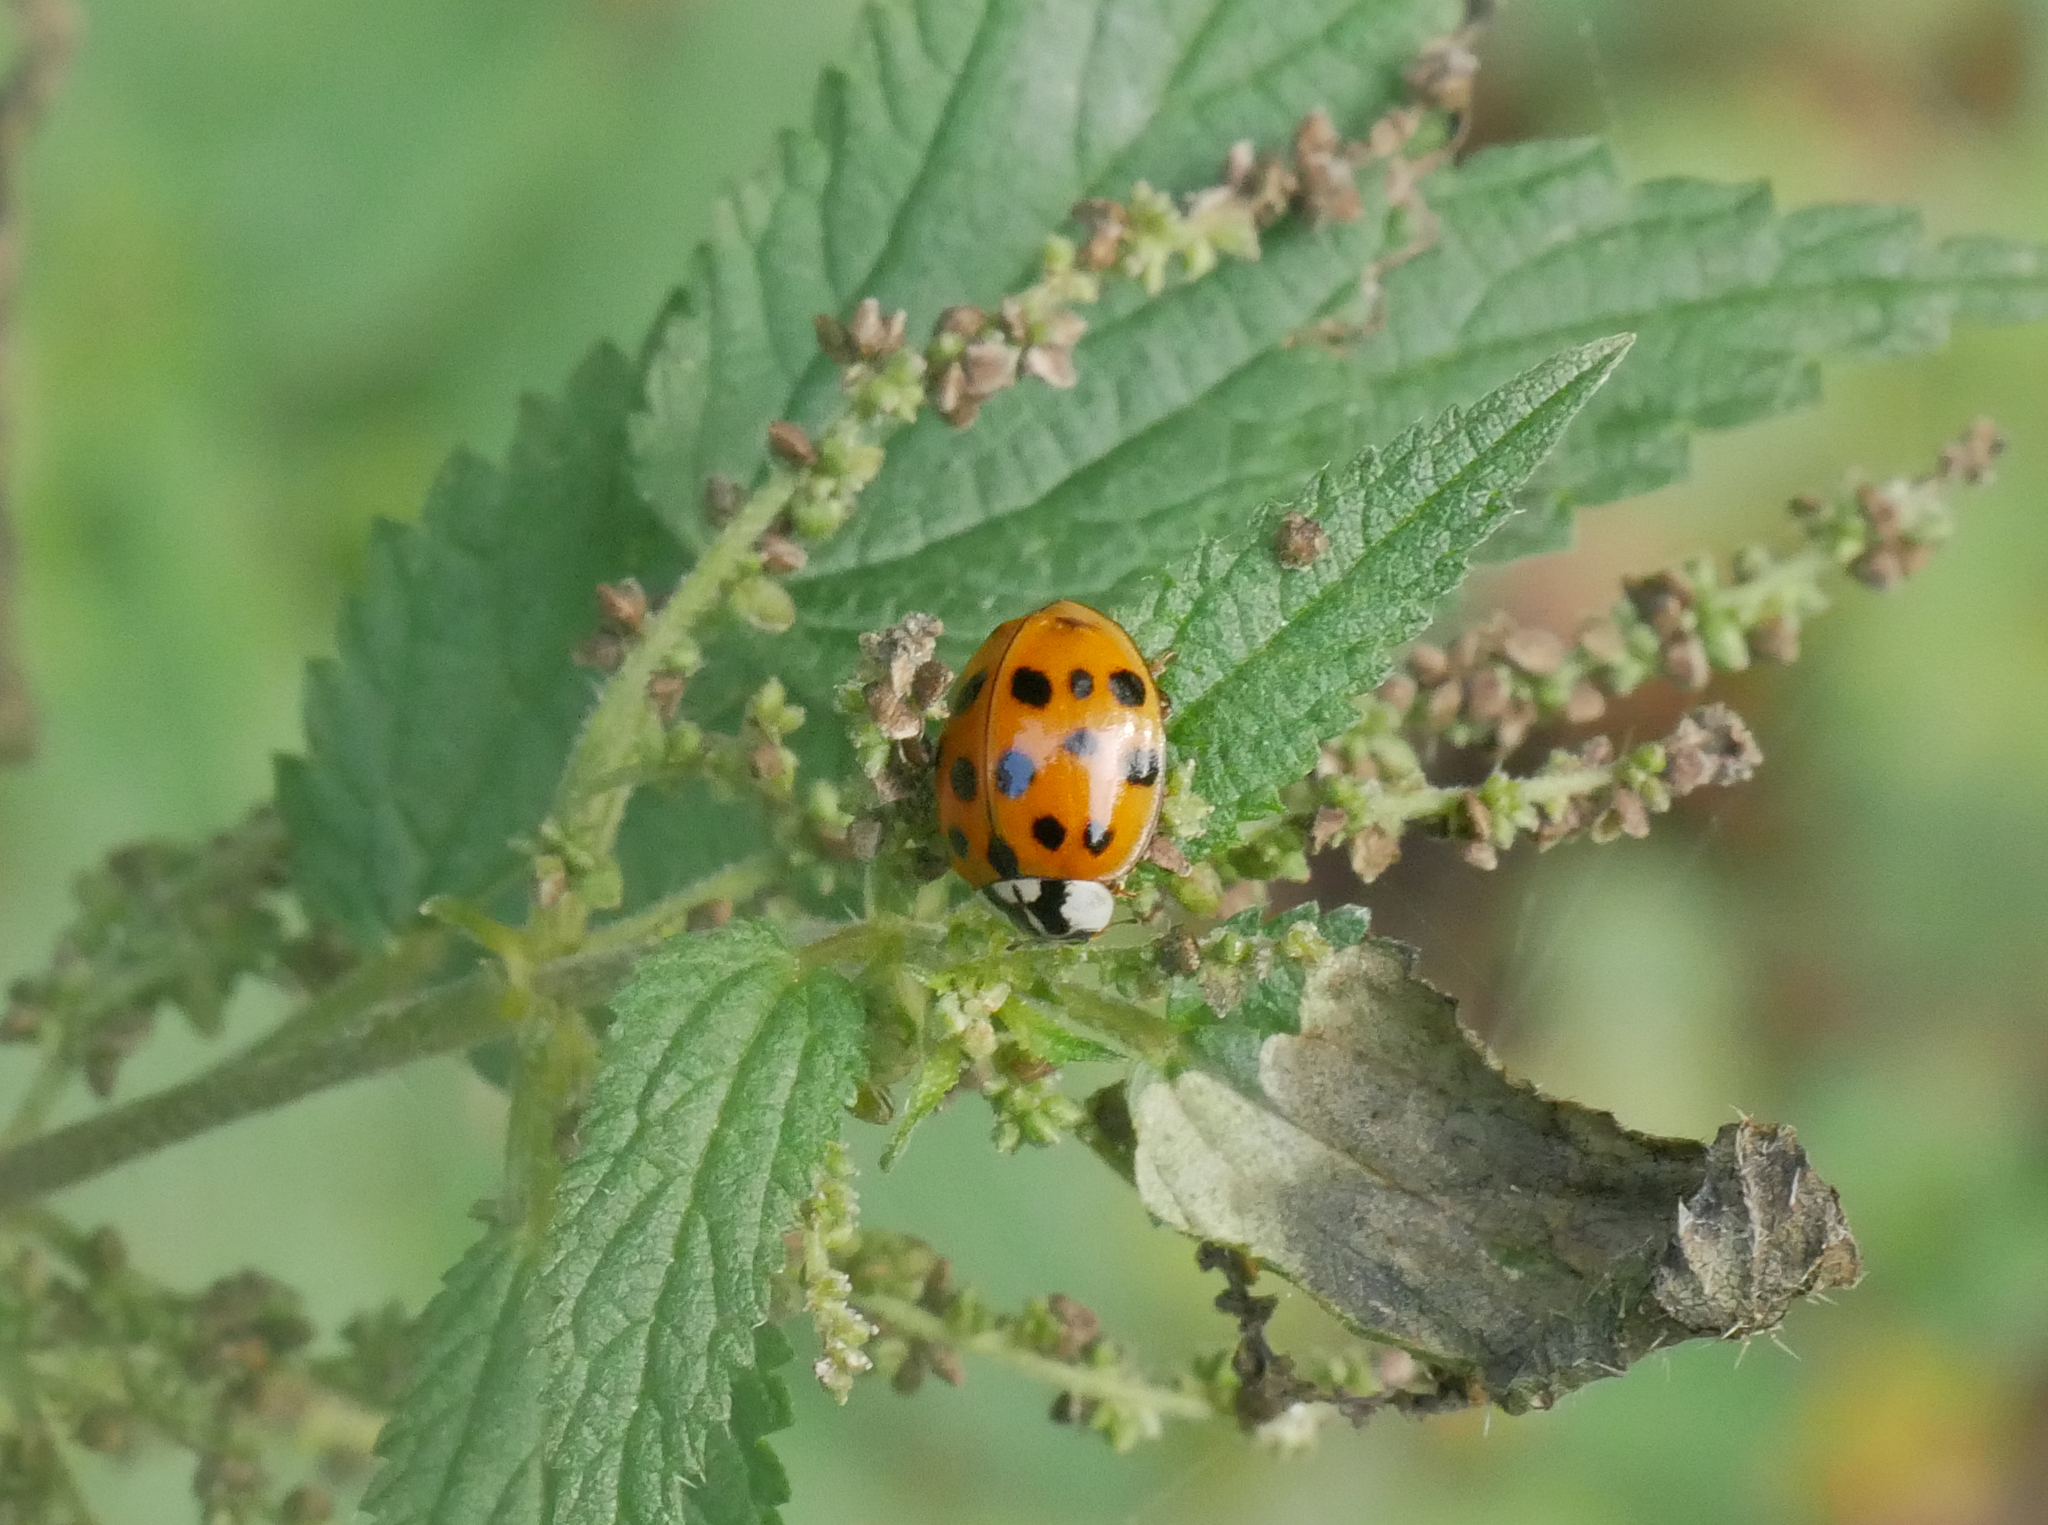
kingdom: Animalia
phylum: Arthropoda
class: Insecta
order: Coleoptera
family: Coccinellidae
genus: Harmonia
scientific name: Harmonia axyridis
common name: Harlequin ladybird
